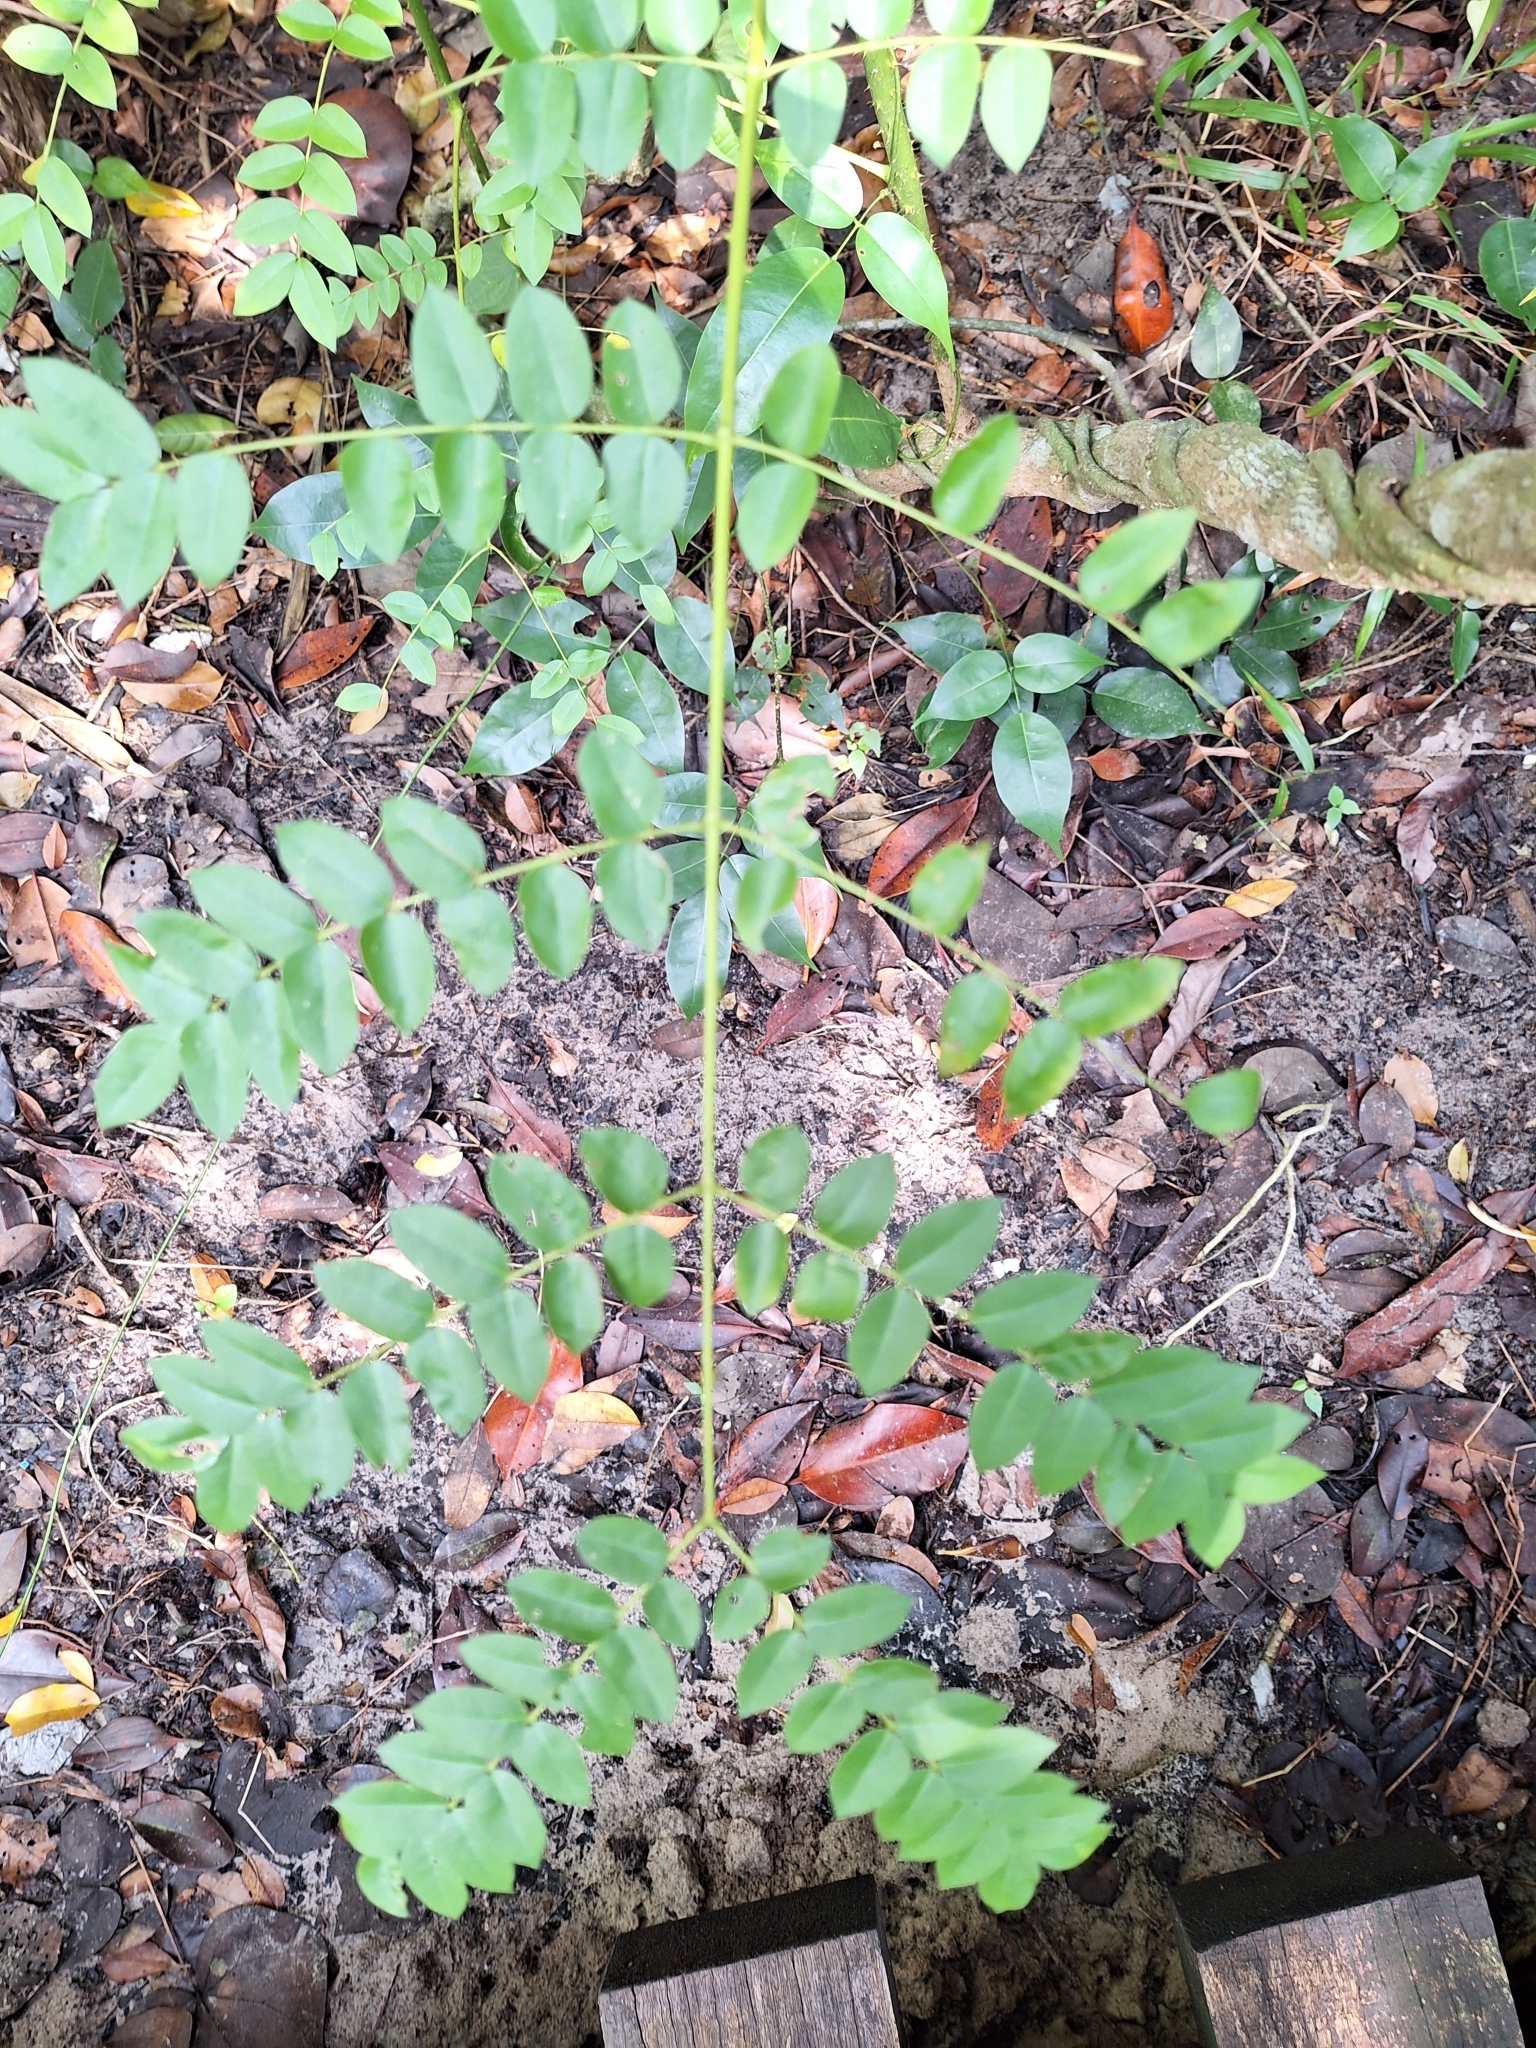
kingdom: Plantae
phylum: Tracheophyta
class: Magnoliopsida
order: Fabales
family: Fabaceae
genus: Guilandina
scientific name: Guilandina bonduc
